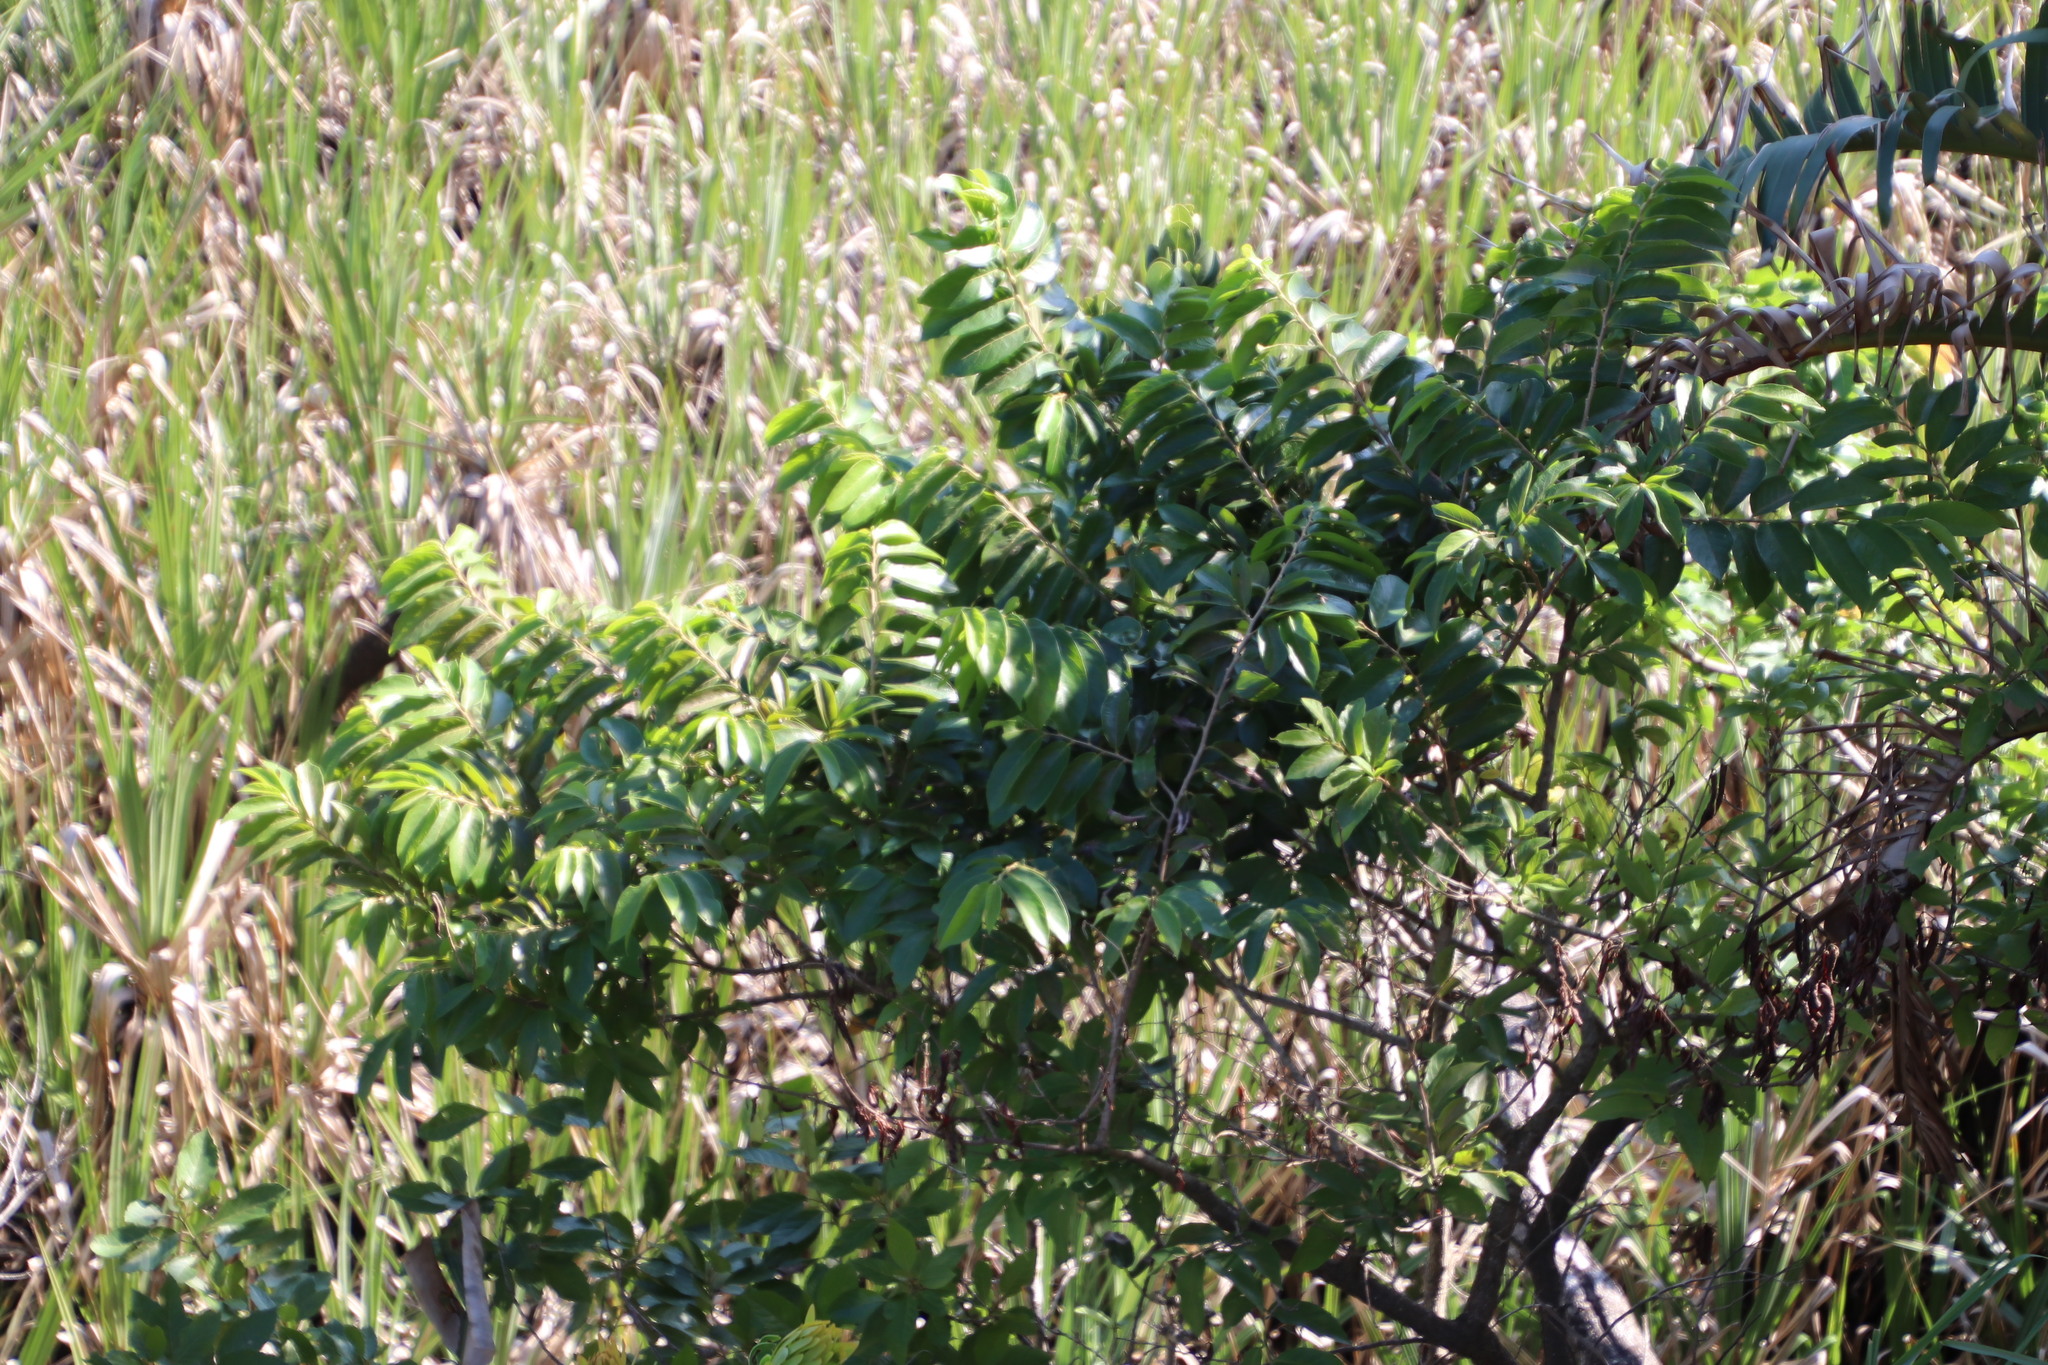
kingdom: Plantae
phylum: Tracheophyta
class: Magnoliopsida
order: Malpighiales
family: Phyllanthaceae
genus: Antidesma
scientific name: Antidesma venosum
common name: Tassel-berry
